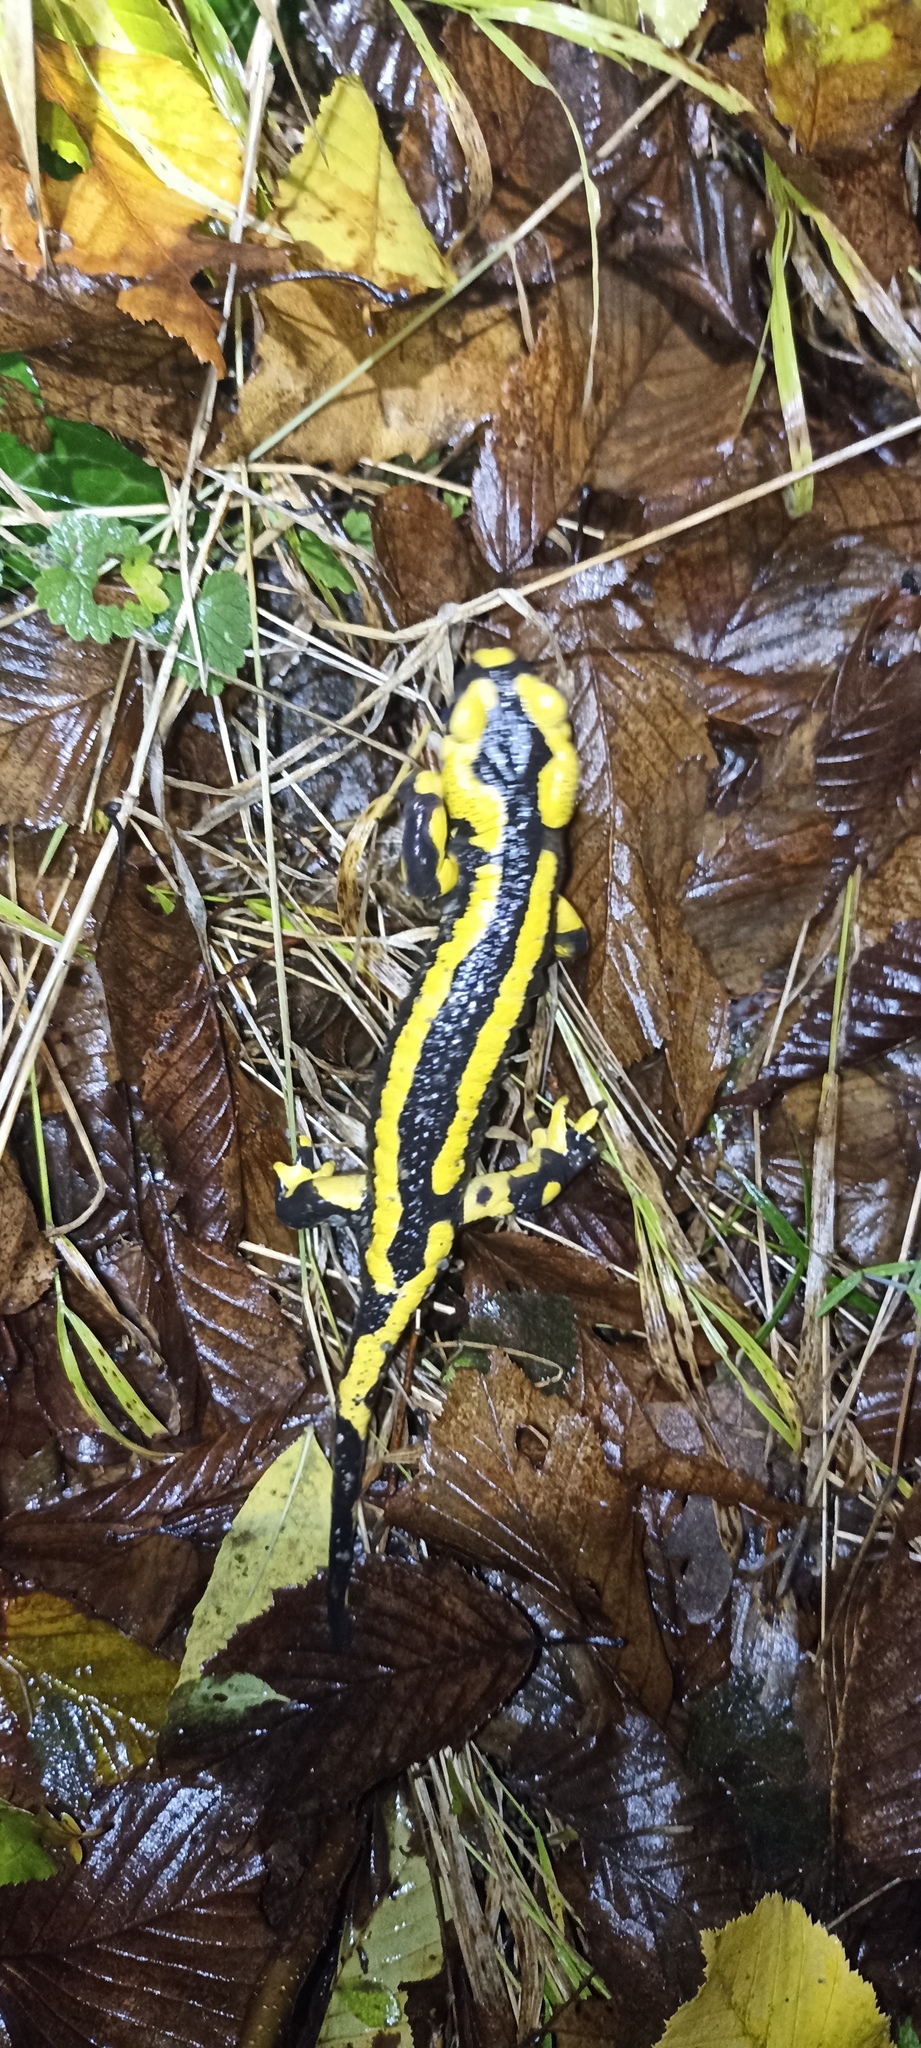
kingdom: Animalia
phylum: Chordata
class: Amphibia
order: Caudata
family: Salamandridae
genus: Salamandra
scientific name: Salamandra salamandra
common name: Fire salamander
